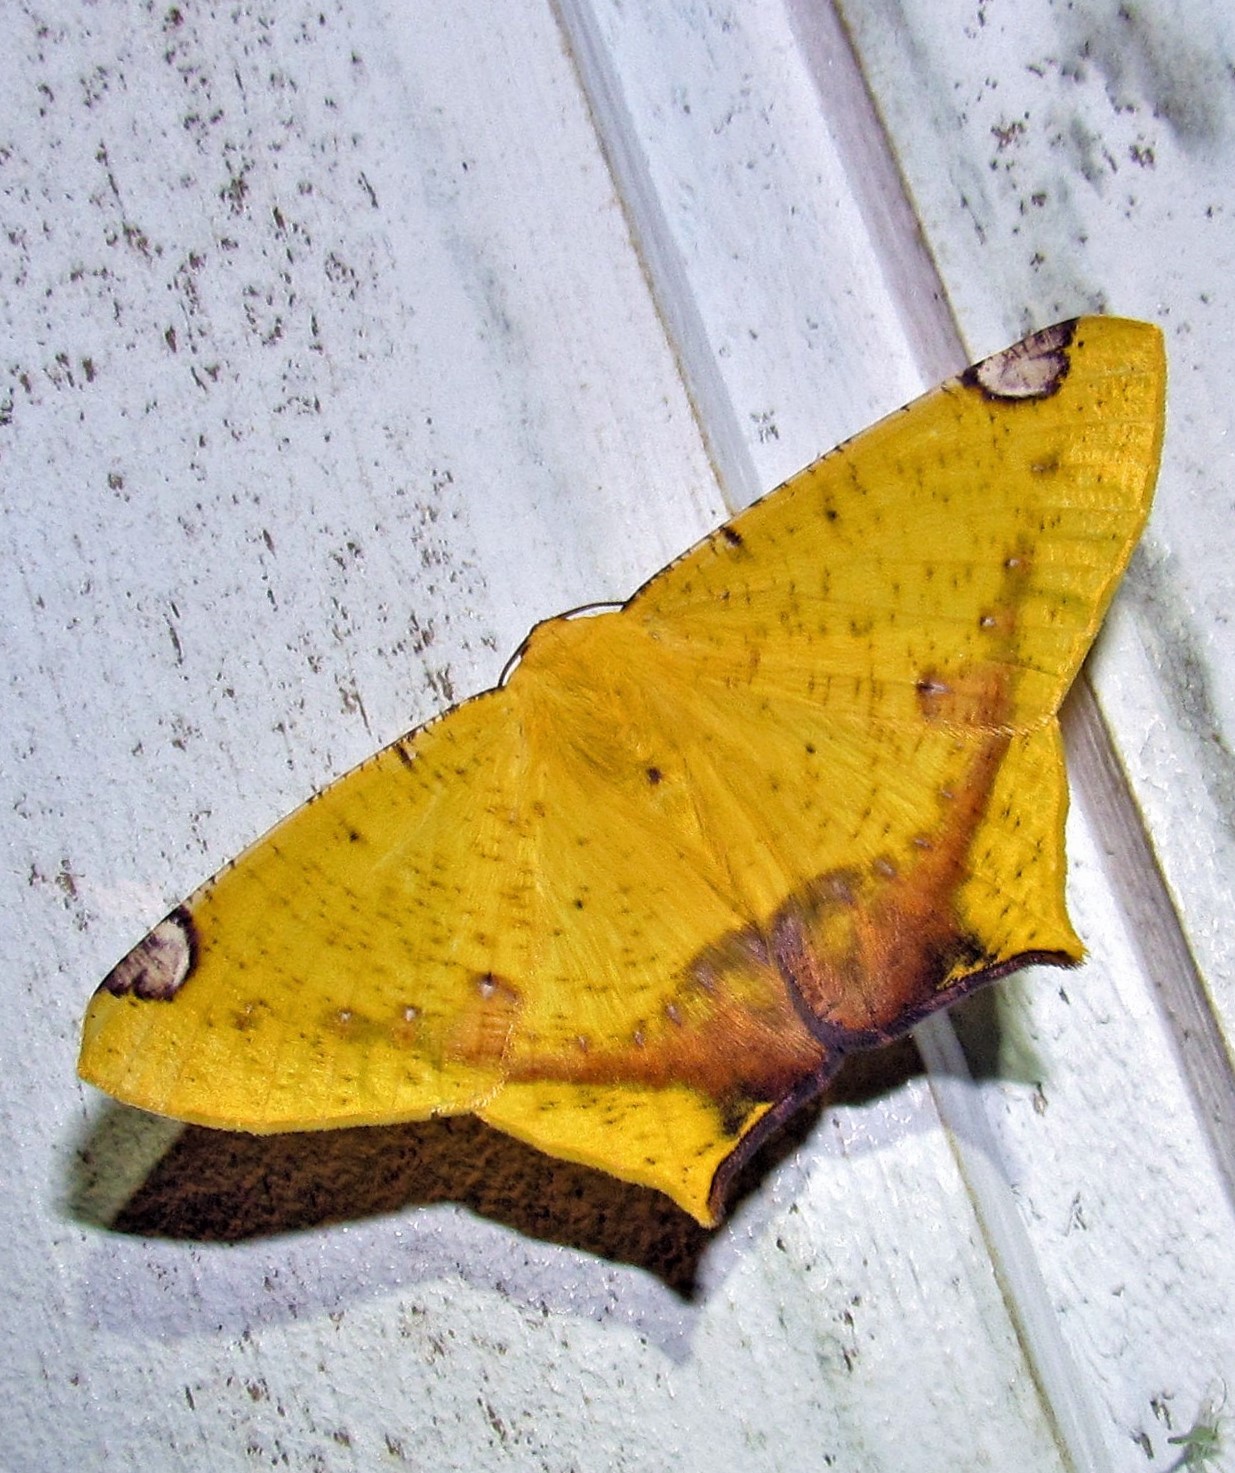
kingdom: Animalia
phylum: Arthropoda
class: Insecta
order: Lepidoptera
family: Geometridae
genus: Nepheloleuca
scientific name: Nepheloleuca politia
